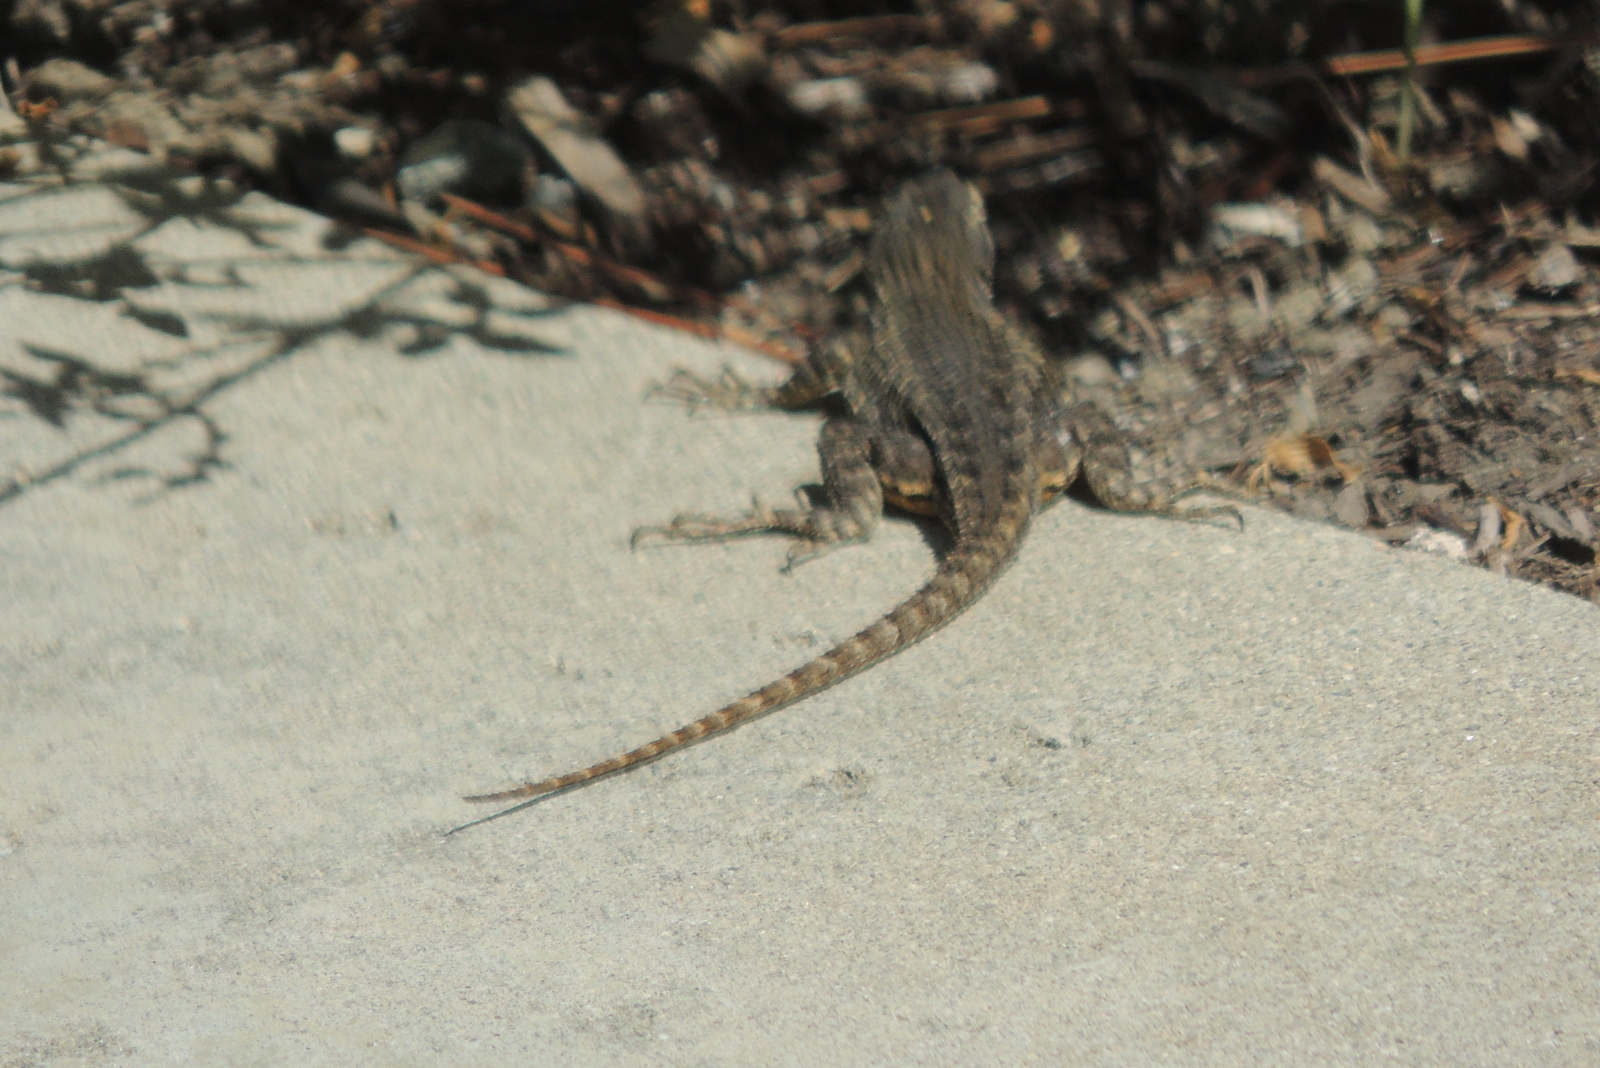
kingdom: Animalia
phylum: Chordata
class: Squamata
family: Phrynosomatidae
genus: Sceloporus
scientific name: Sceloporus occidentalis
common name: Western fence lizard
